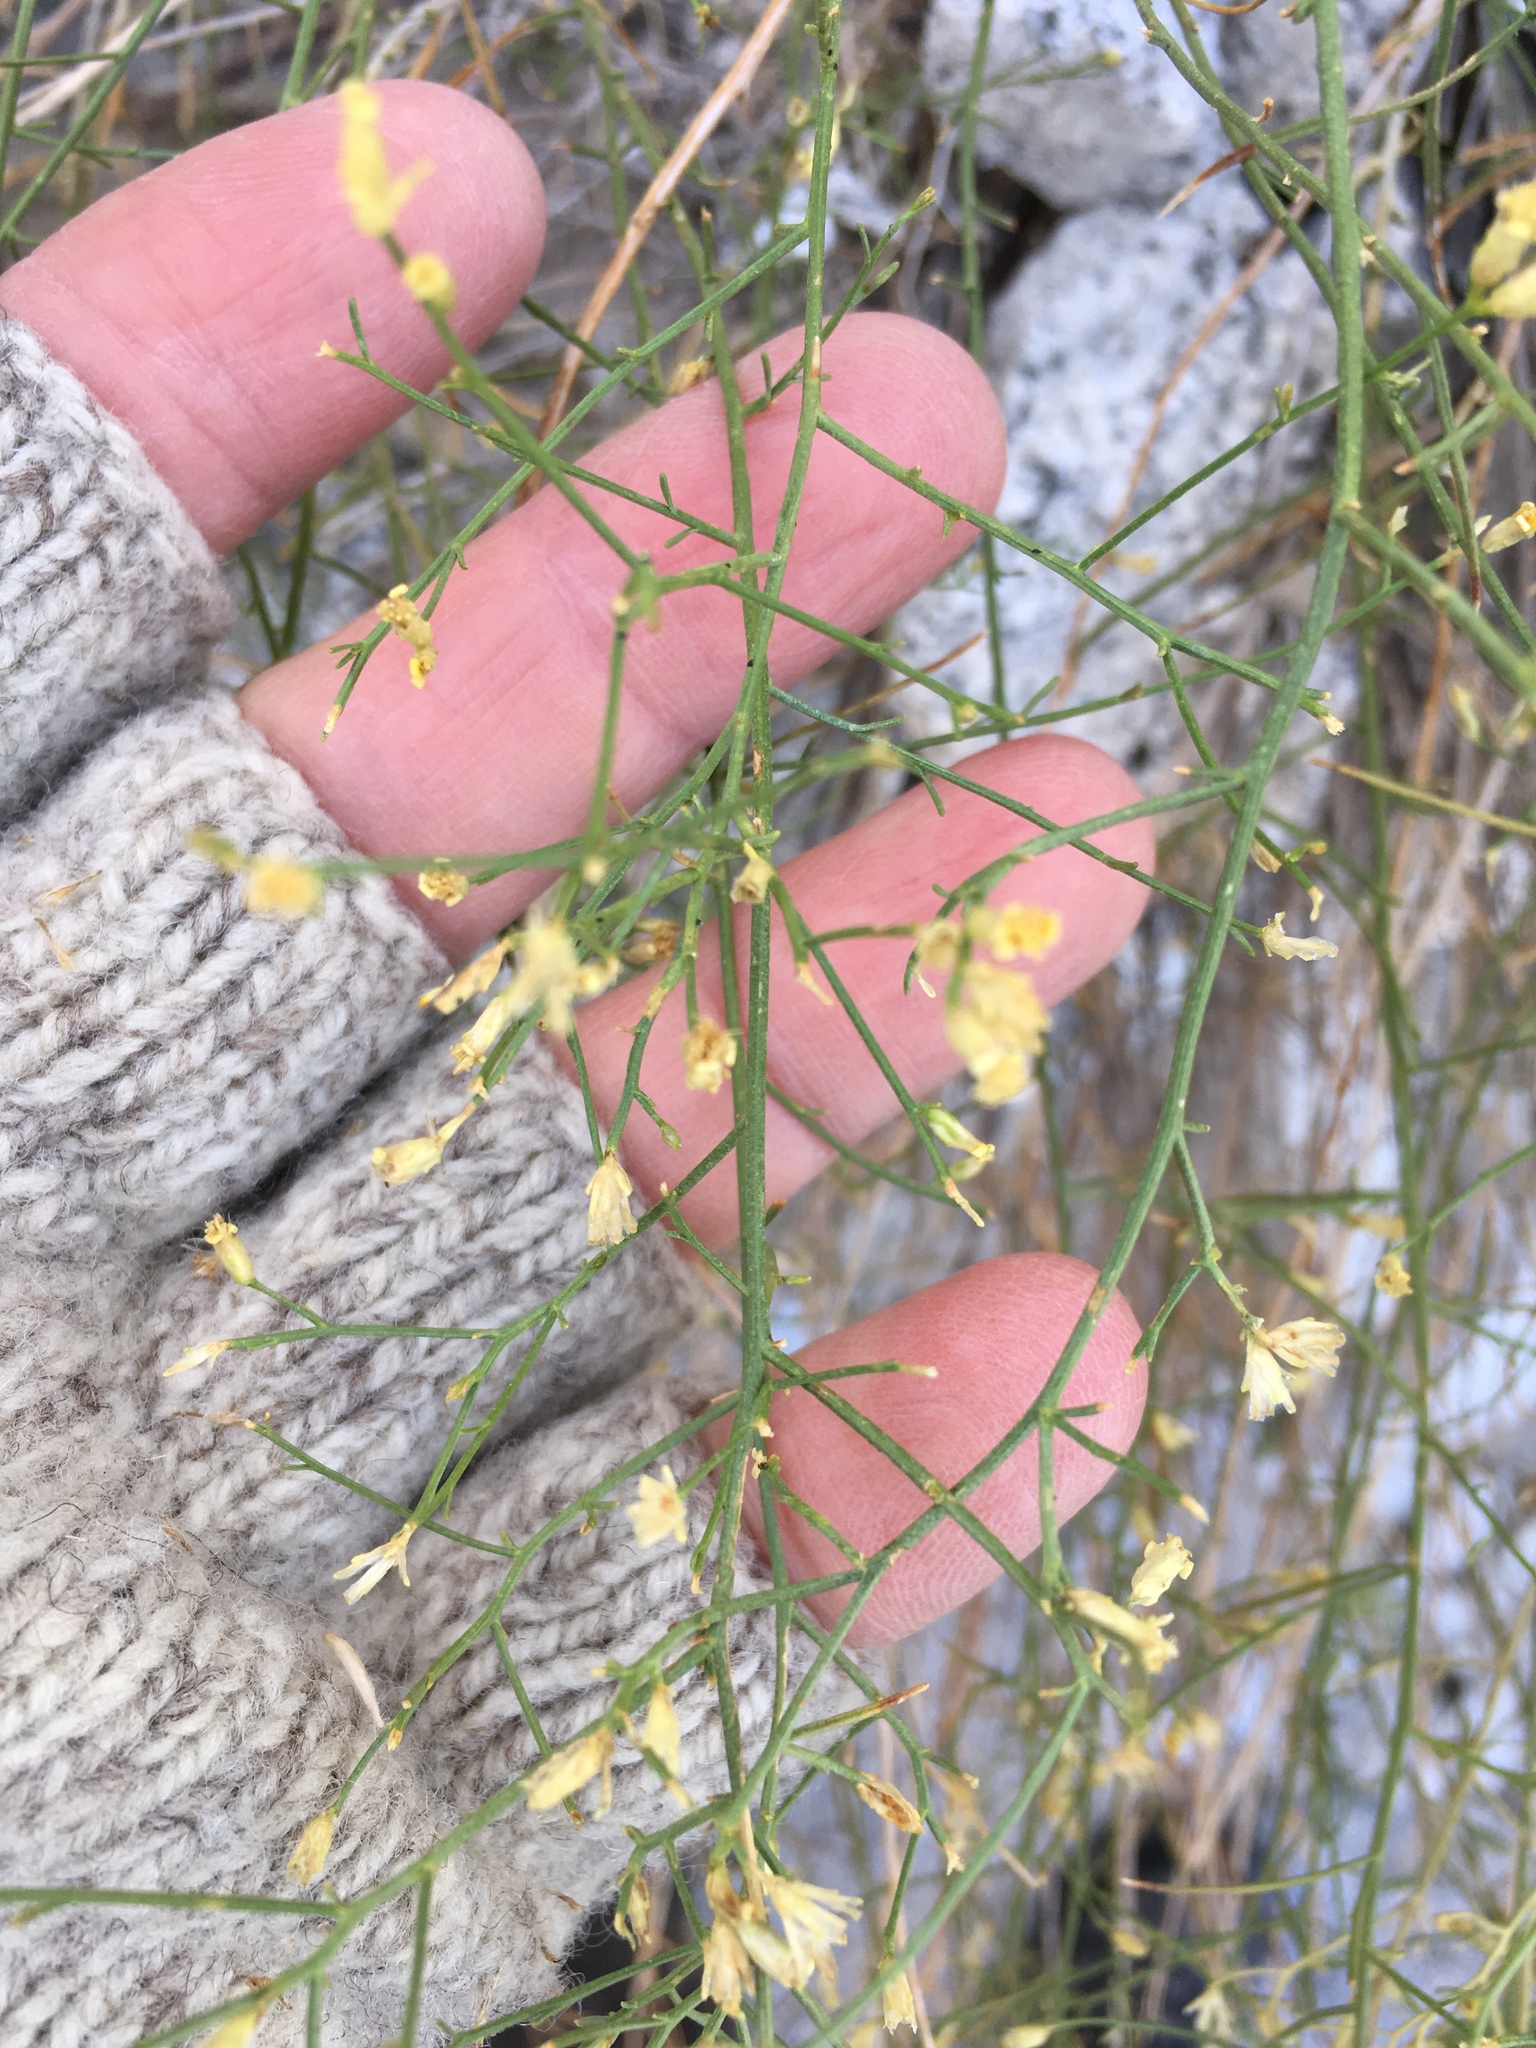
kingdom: Plantae
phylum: Tracheophyta
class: Magnoliopsida
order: Asterales
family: Asteraceae
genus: Gutierrezia
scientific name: Gutierrezia sarothrae
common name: Broom snakeweed
